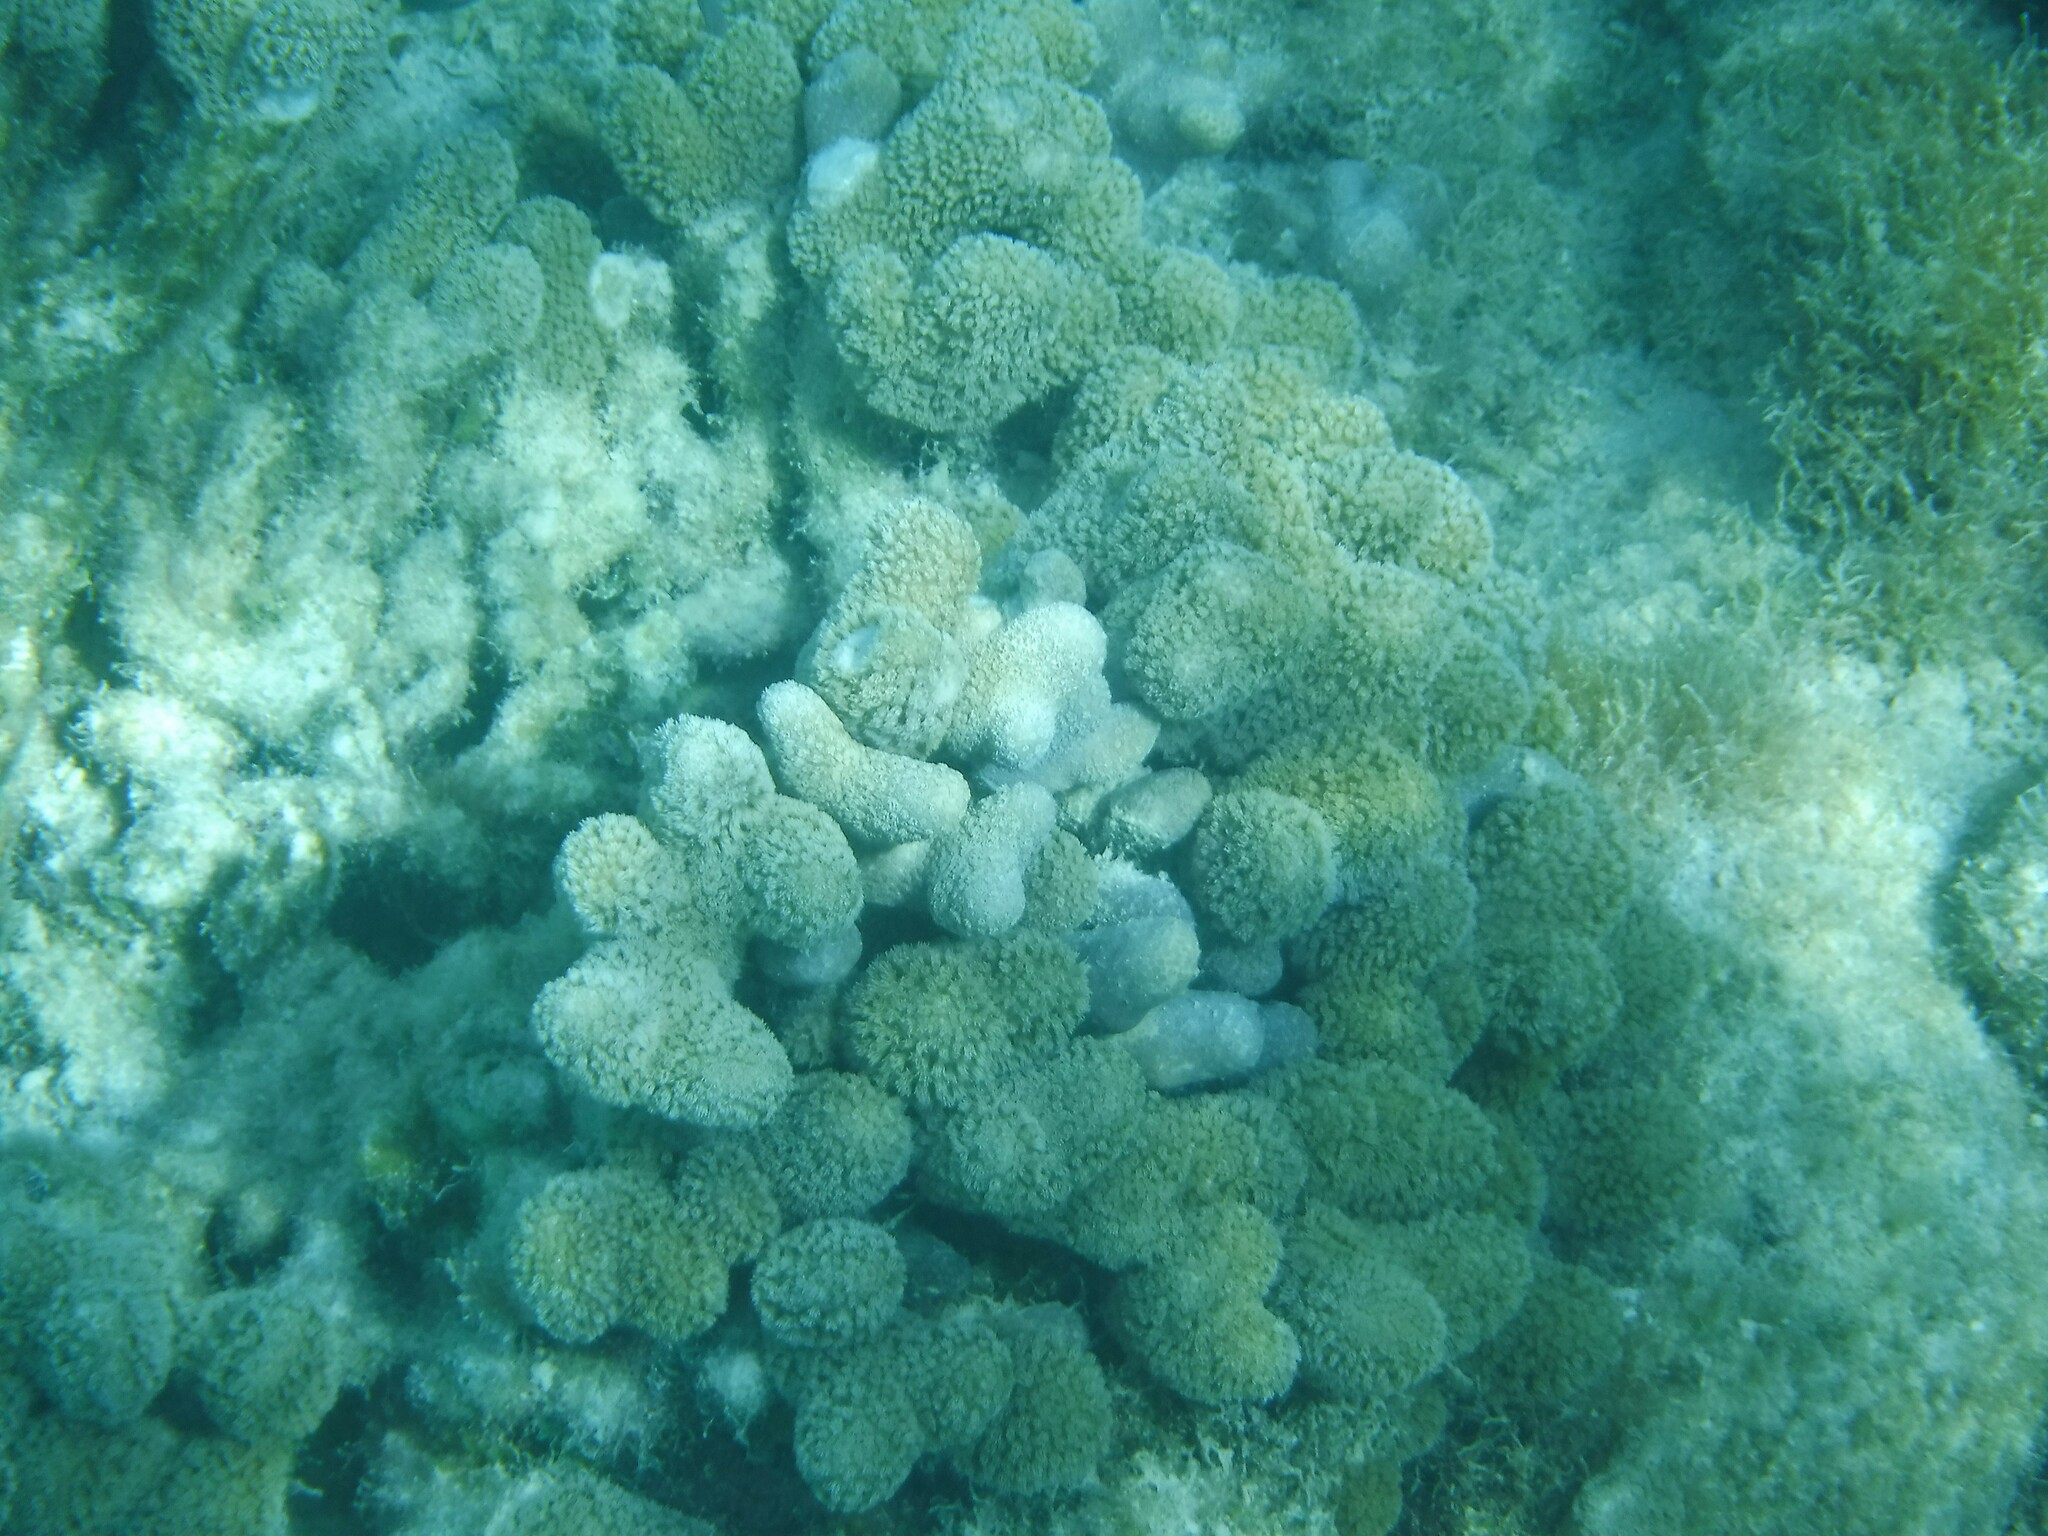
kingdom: Animalia
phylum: Cnidaria
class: Anthozoa
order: Scleractinia
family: Poritidae
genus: Porites
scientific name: Porites porites
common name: Finger coral
